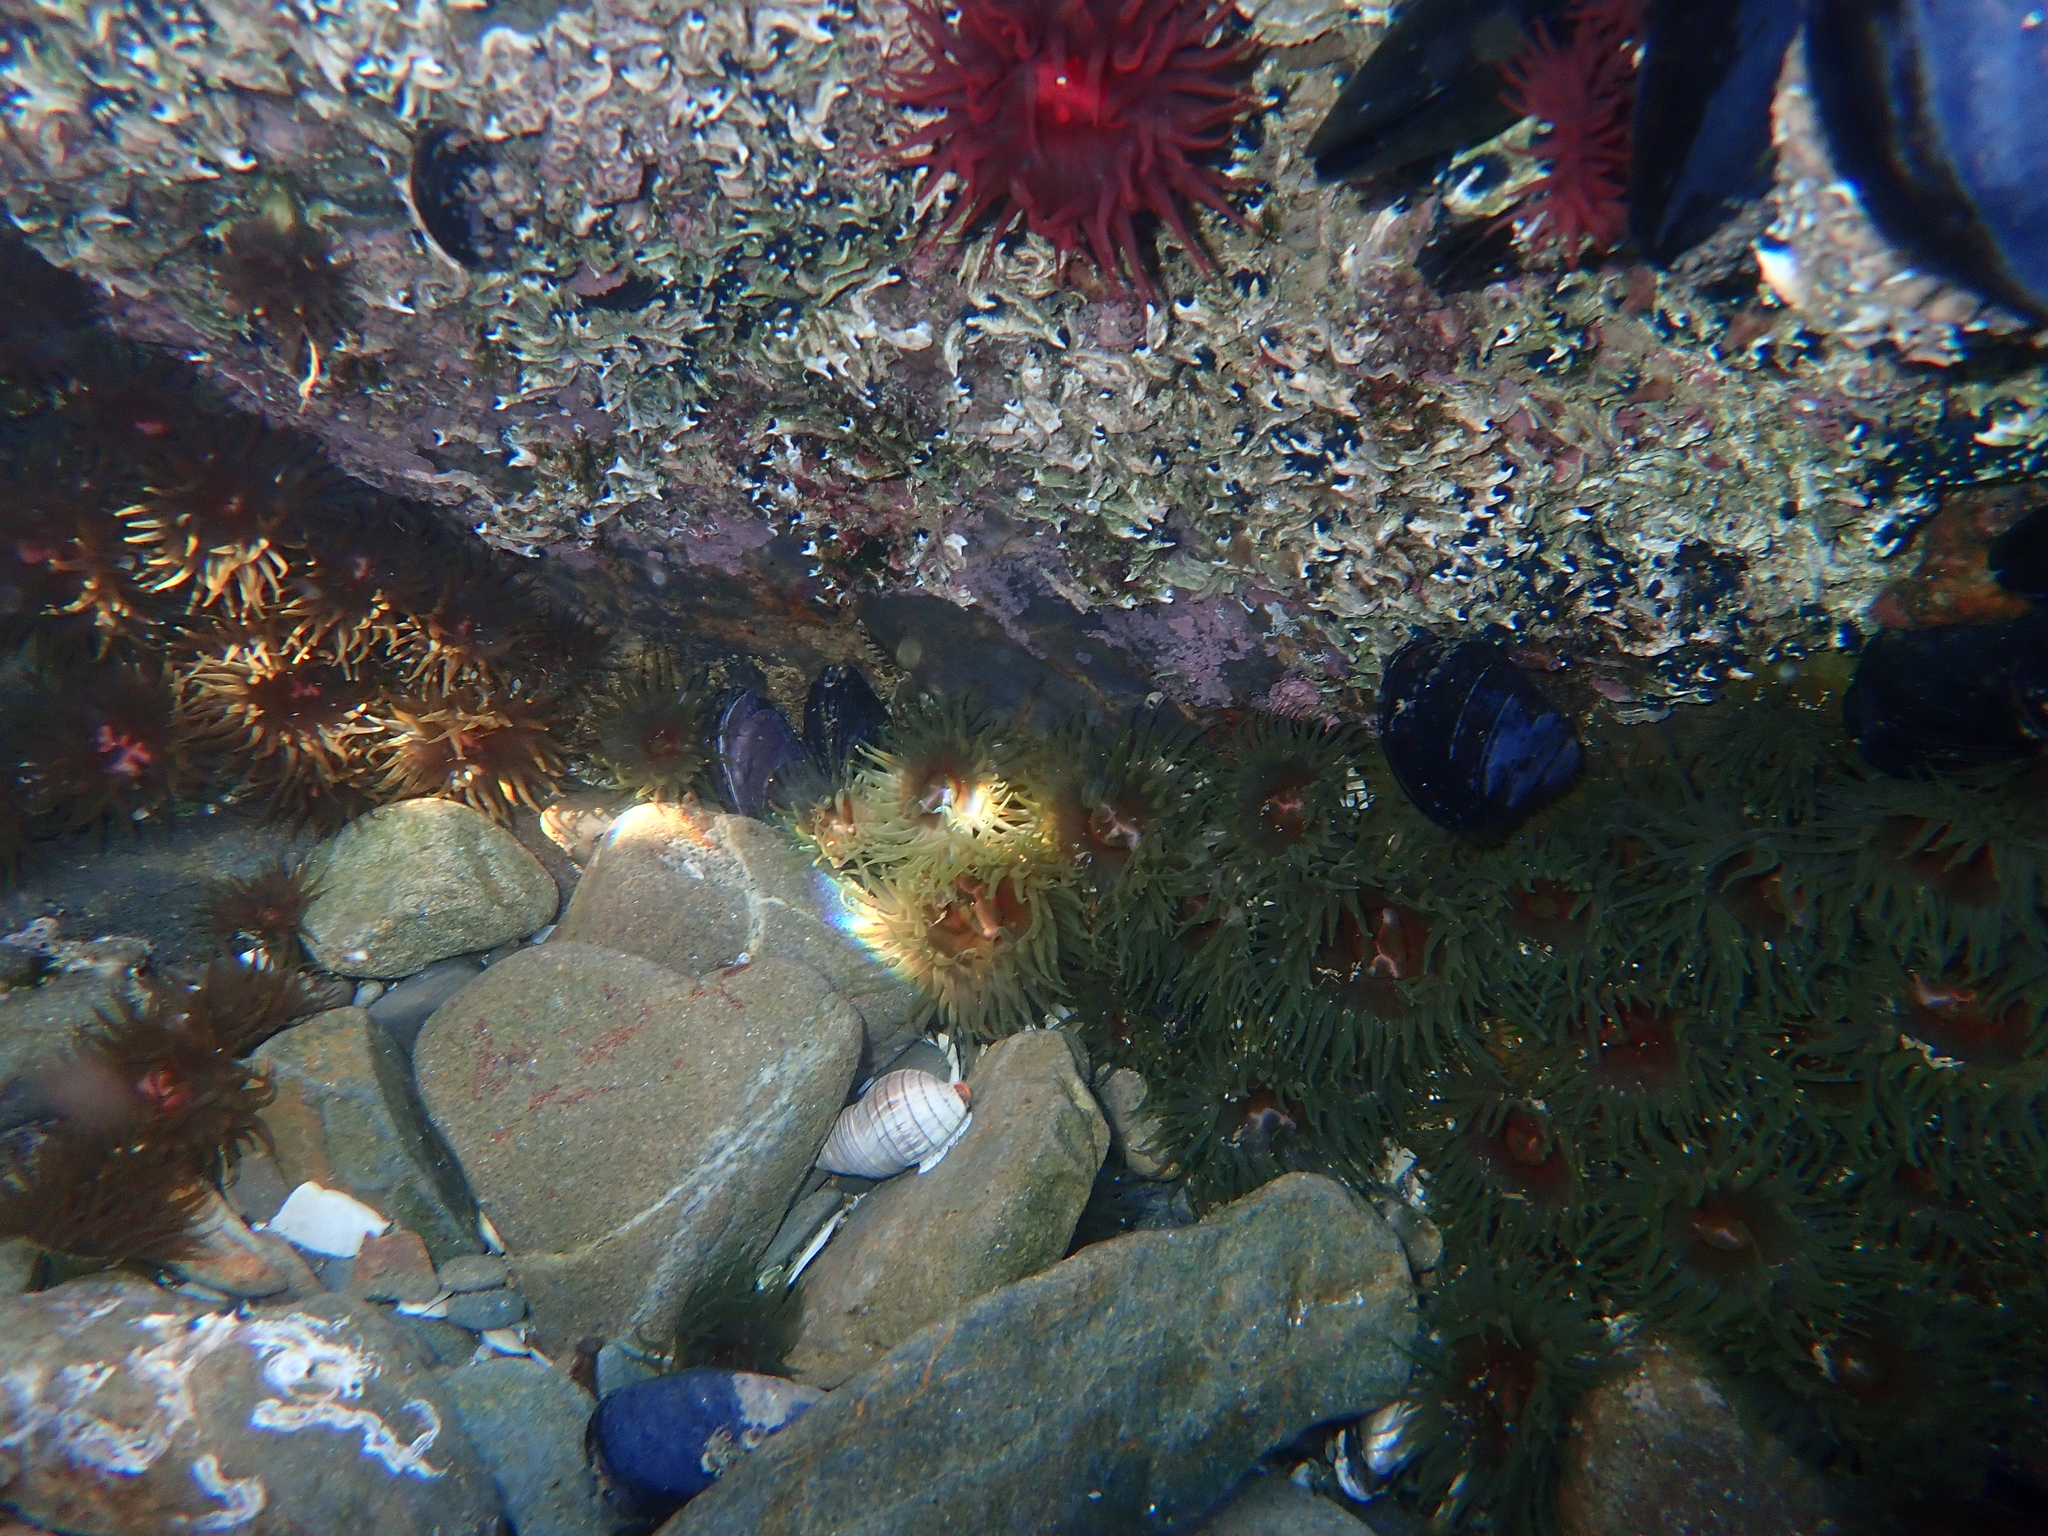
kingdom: Animalia
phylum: Cnidaria
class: Anthozoa
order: Actiniaria
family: Actiniidae
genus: Isactinia
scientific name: Isactinia olivacea
